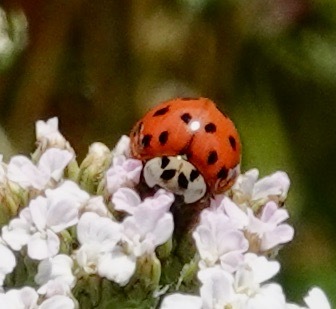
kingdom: Animalia
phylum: Arthropoda
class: Insecta
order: Coleoptera
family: Coccinellidae
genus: Harmonia
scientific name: Harmonia axyridis
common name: Harlequin ladybird
